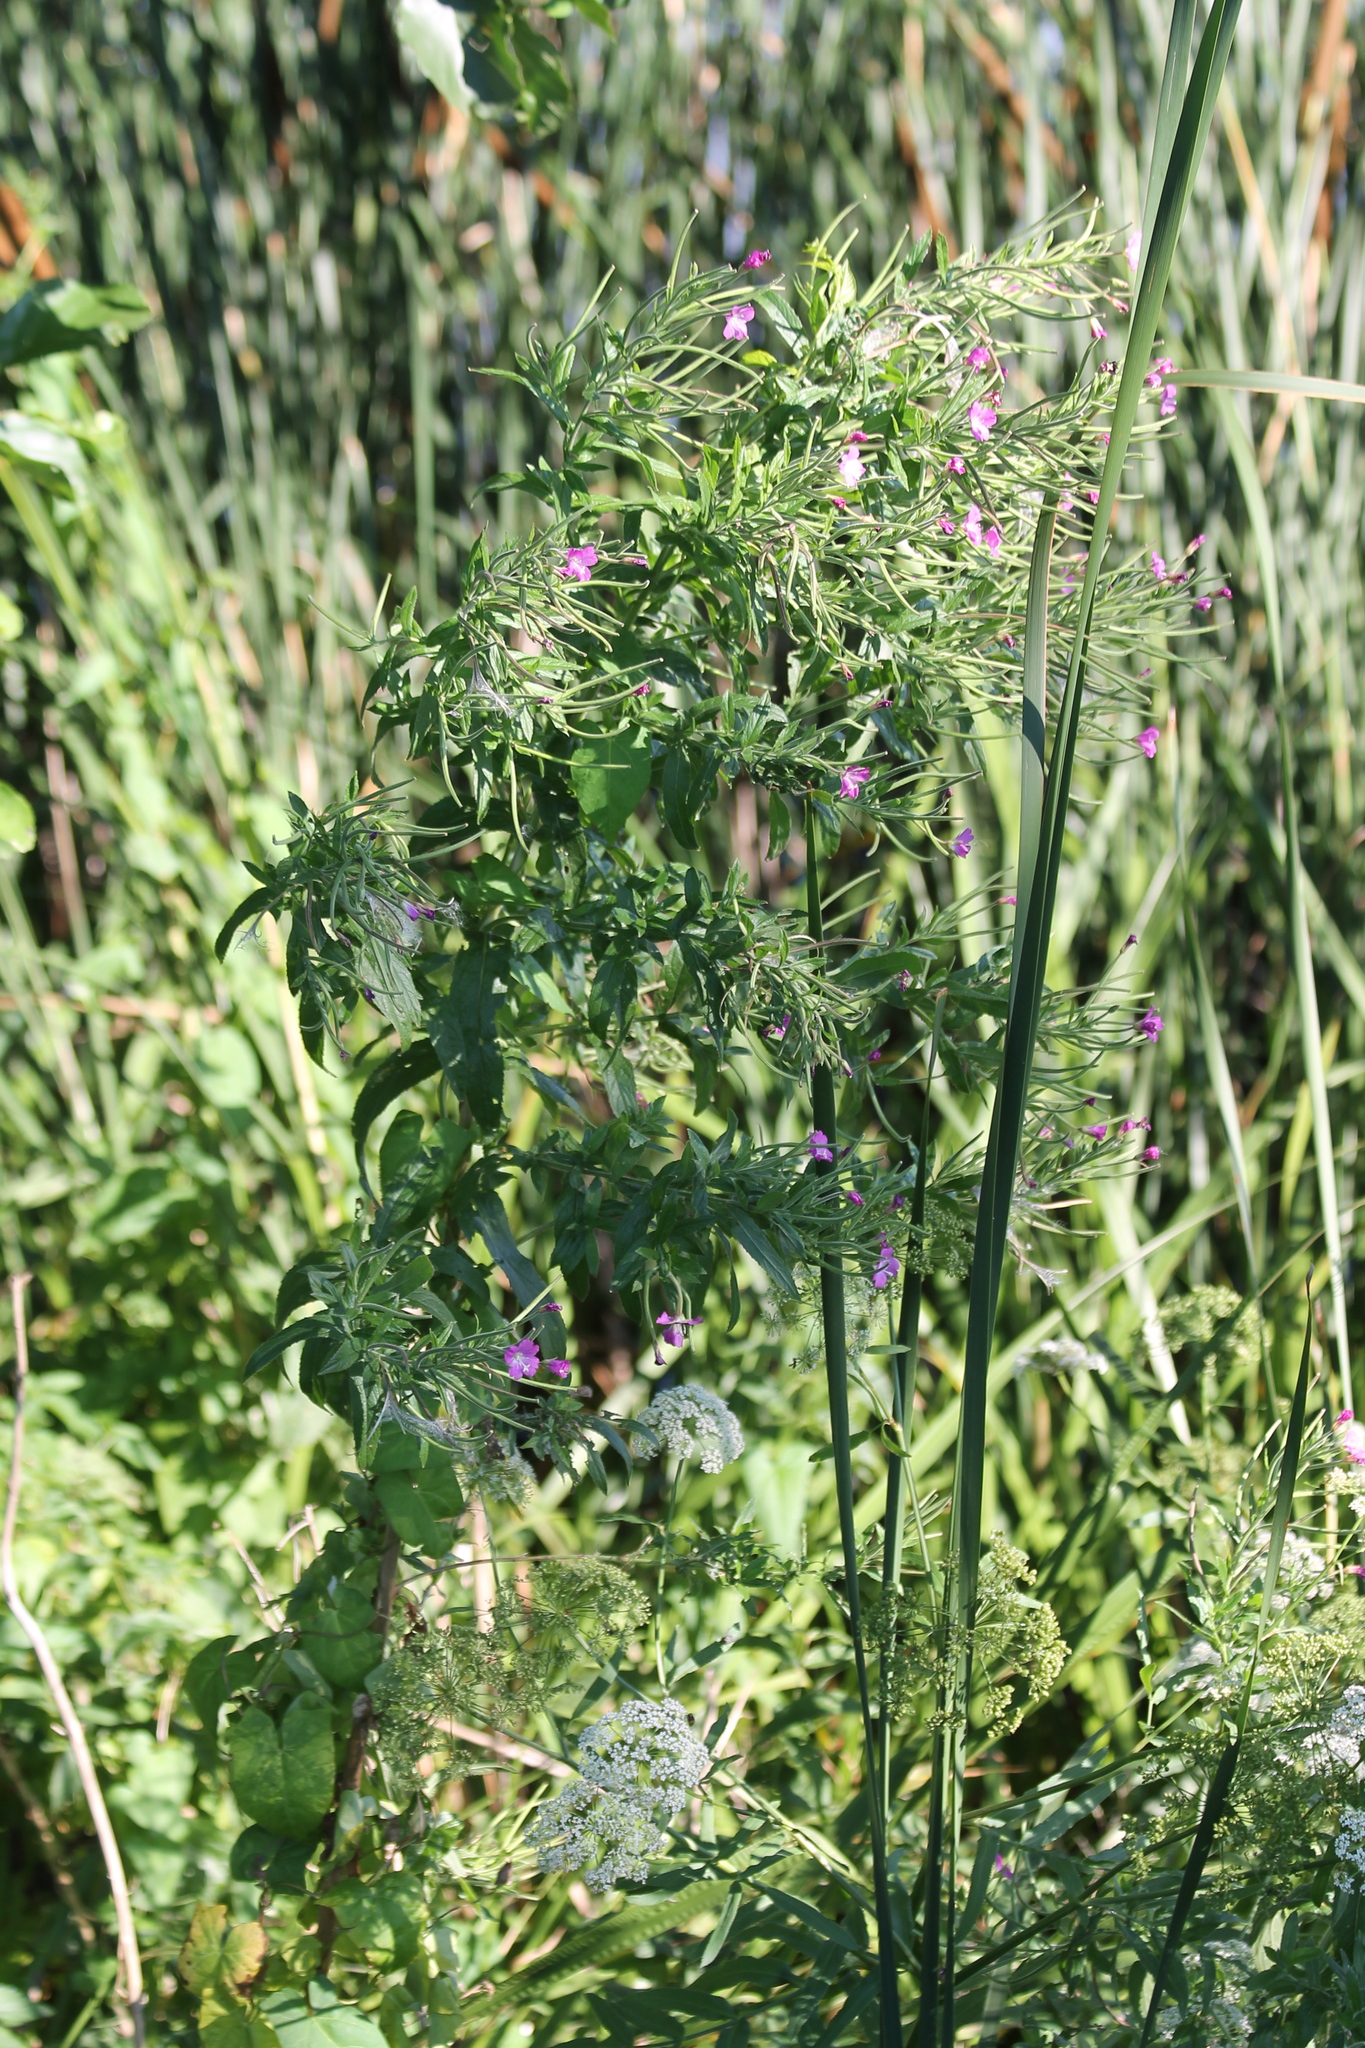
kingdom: Plantae
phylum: Tracheophyta
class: Magnoliopsida
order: Myrtales
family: Onagraceae
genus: Epilobium
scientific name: Epilobium hirsutum
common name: Great willowherb
